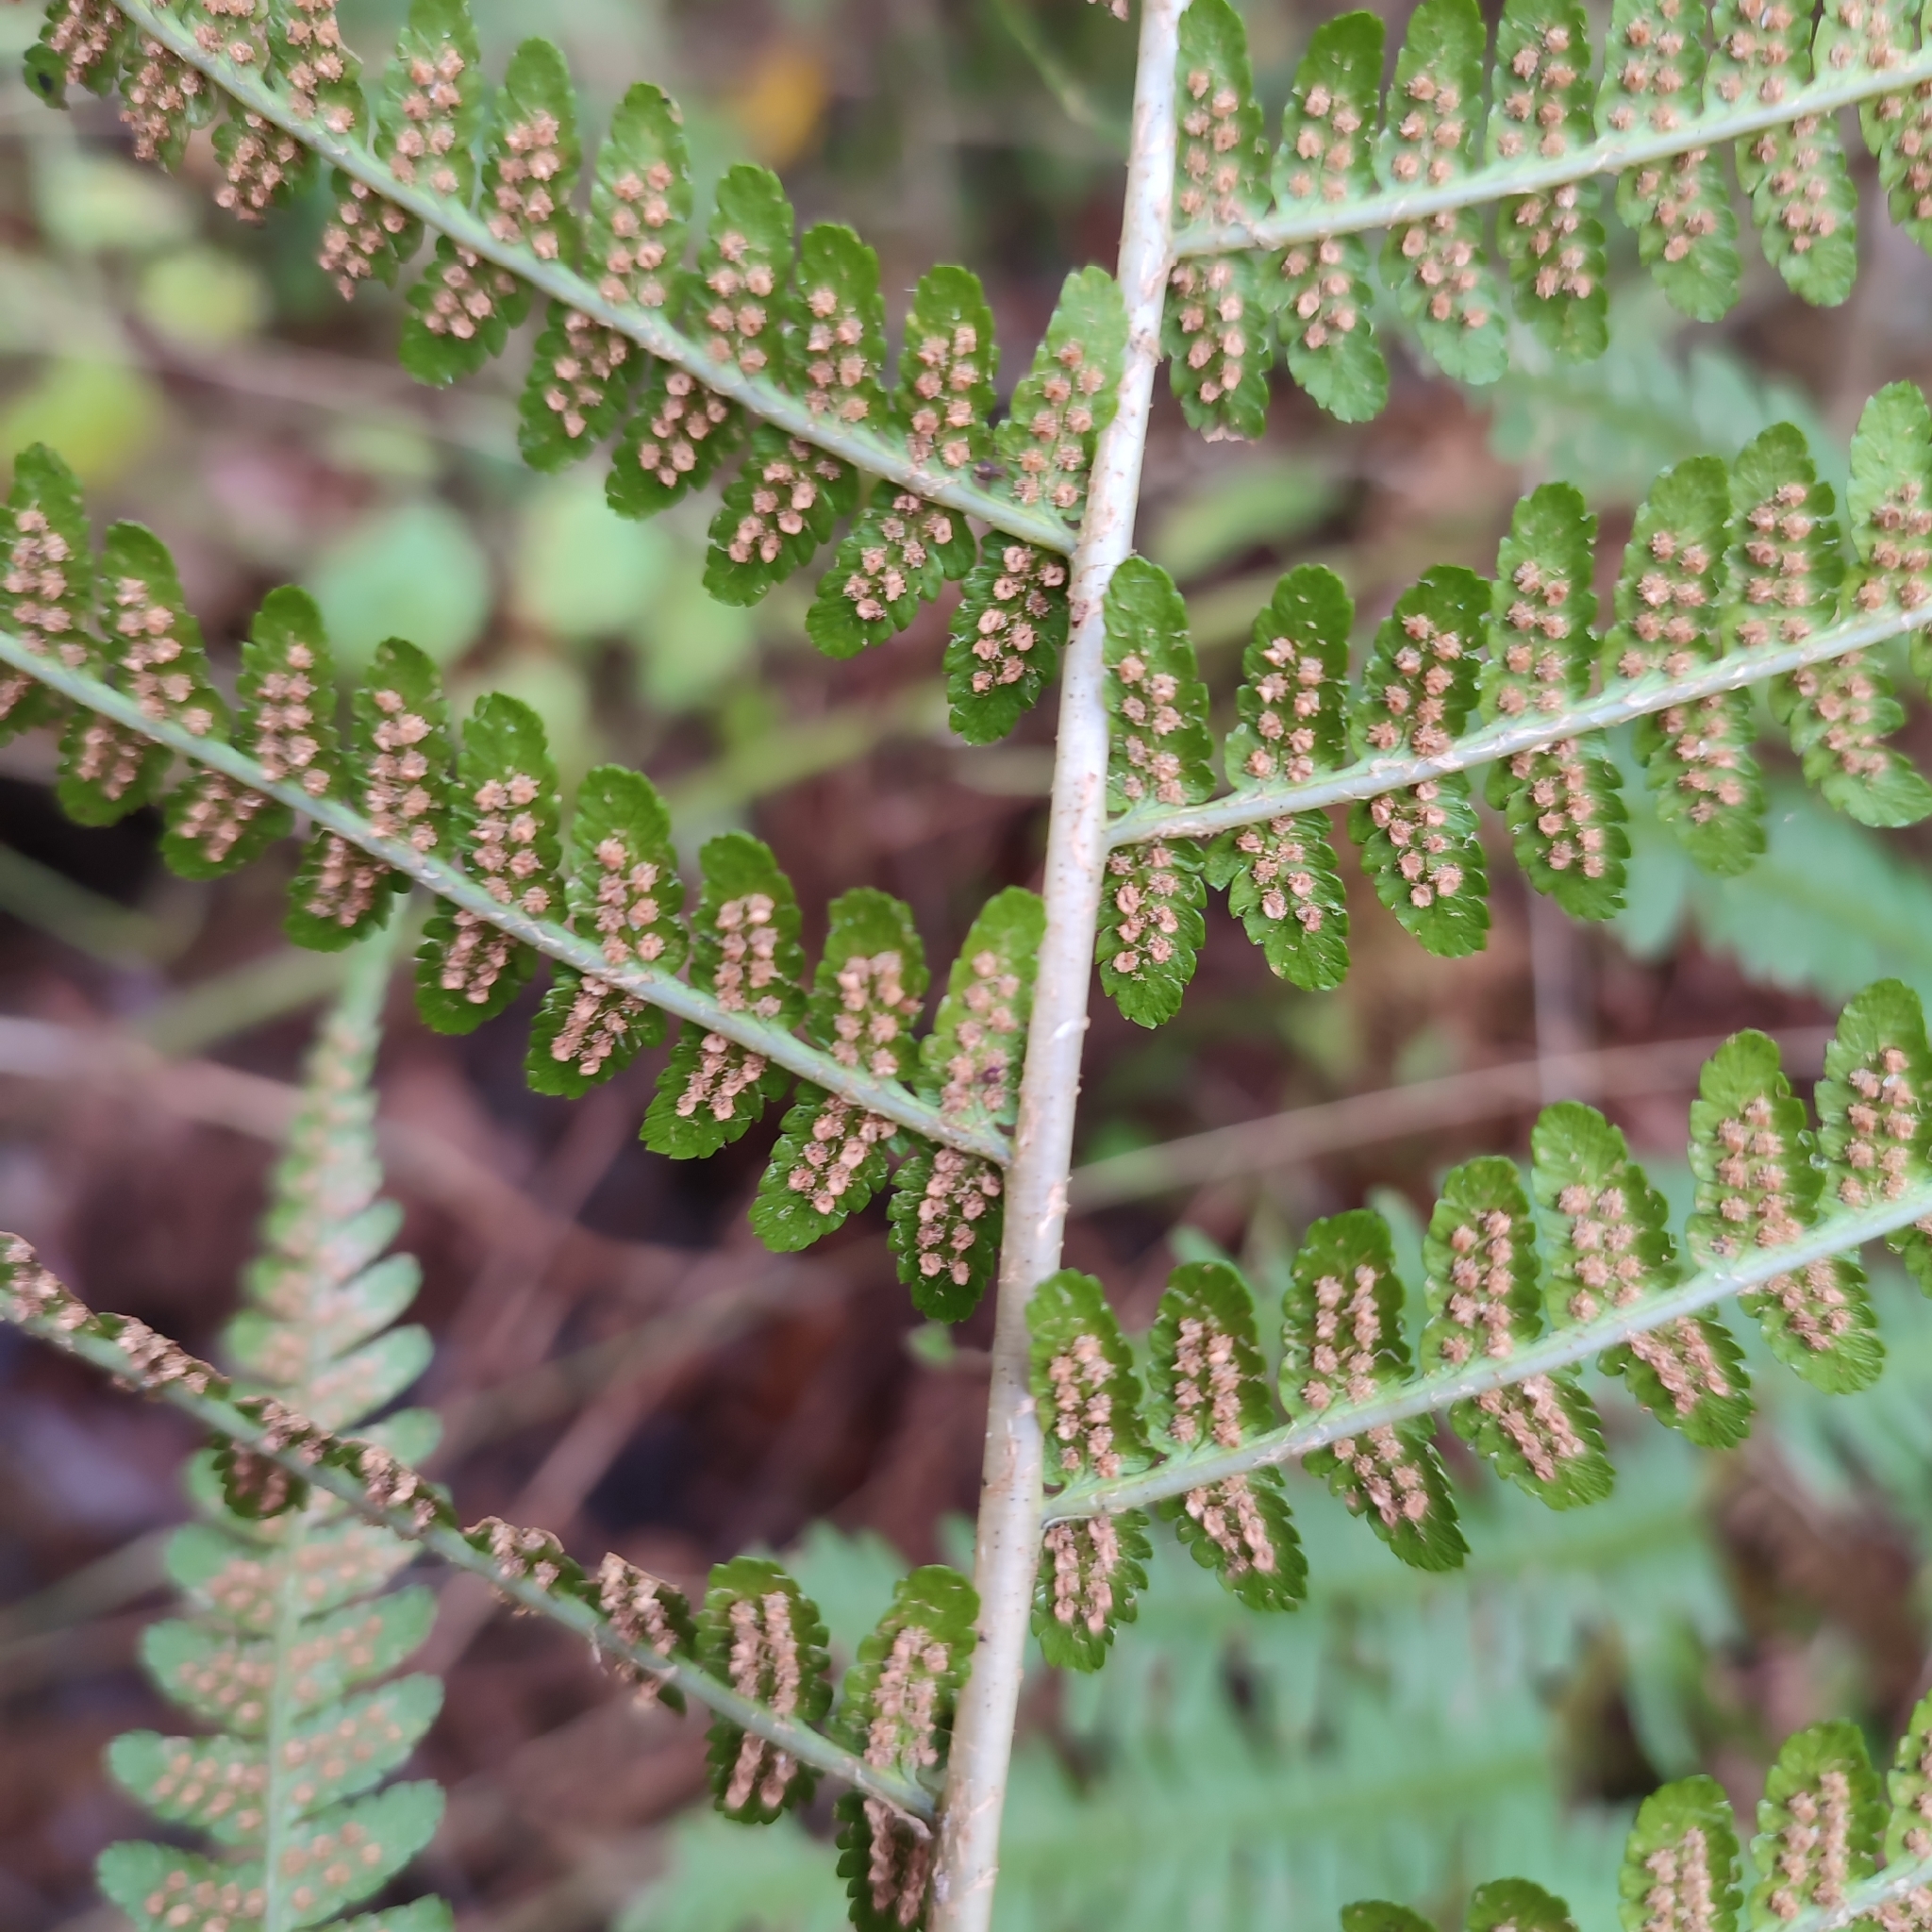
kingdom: Plantae
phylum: Tracheophyta
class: Polypodiopsida
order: Polypodiales
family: Dryopteridaceae
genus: Dryopteris
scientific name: Dryopteris filix-mas
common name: Male fern
